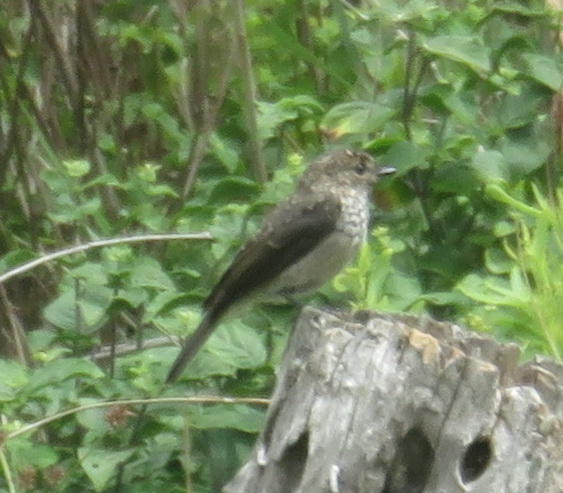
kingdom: Animalia
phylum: Chordata
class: Aves
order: Passeriformes
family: Muscicapidae
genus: Muscicapa
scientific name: Muscicapa adusta
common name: African dusky flycatcher
